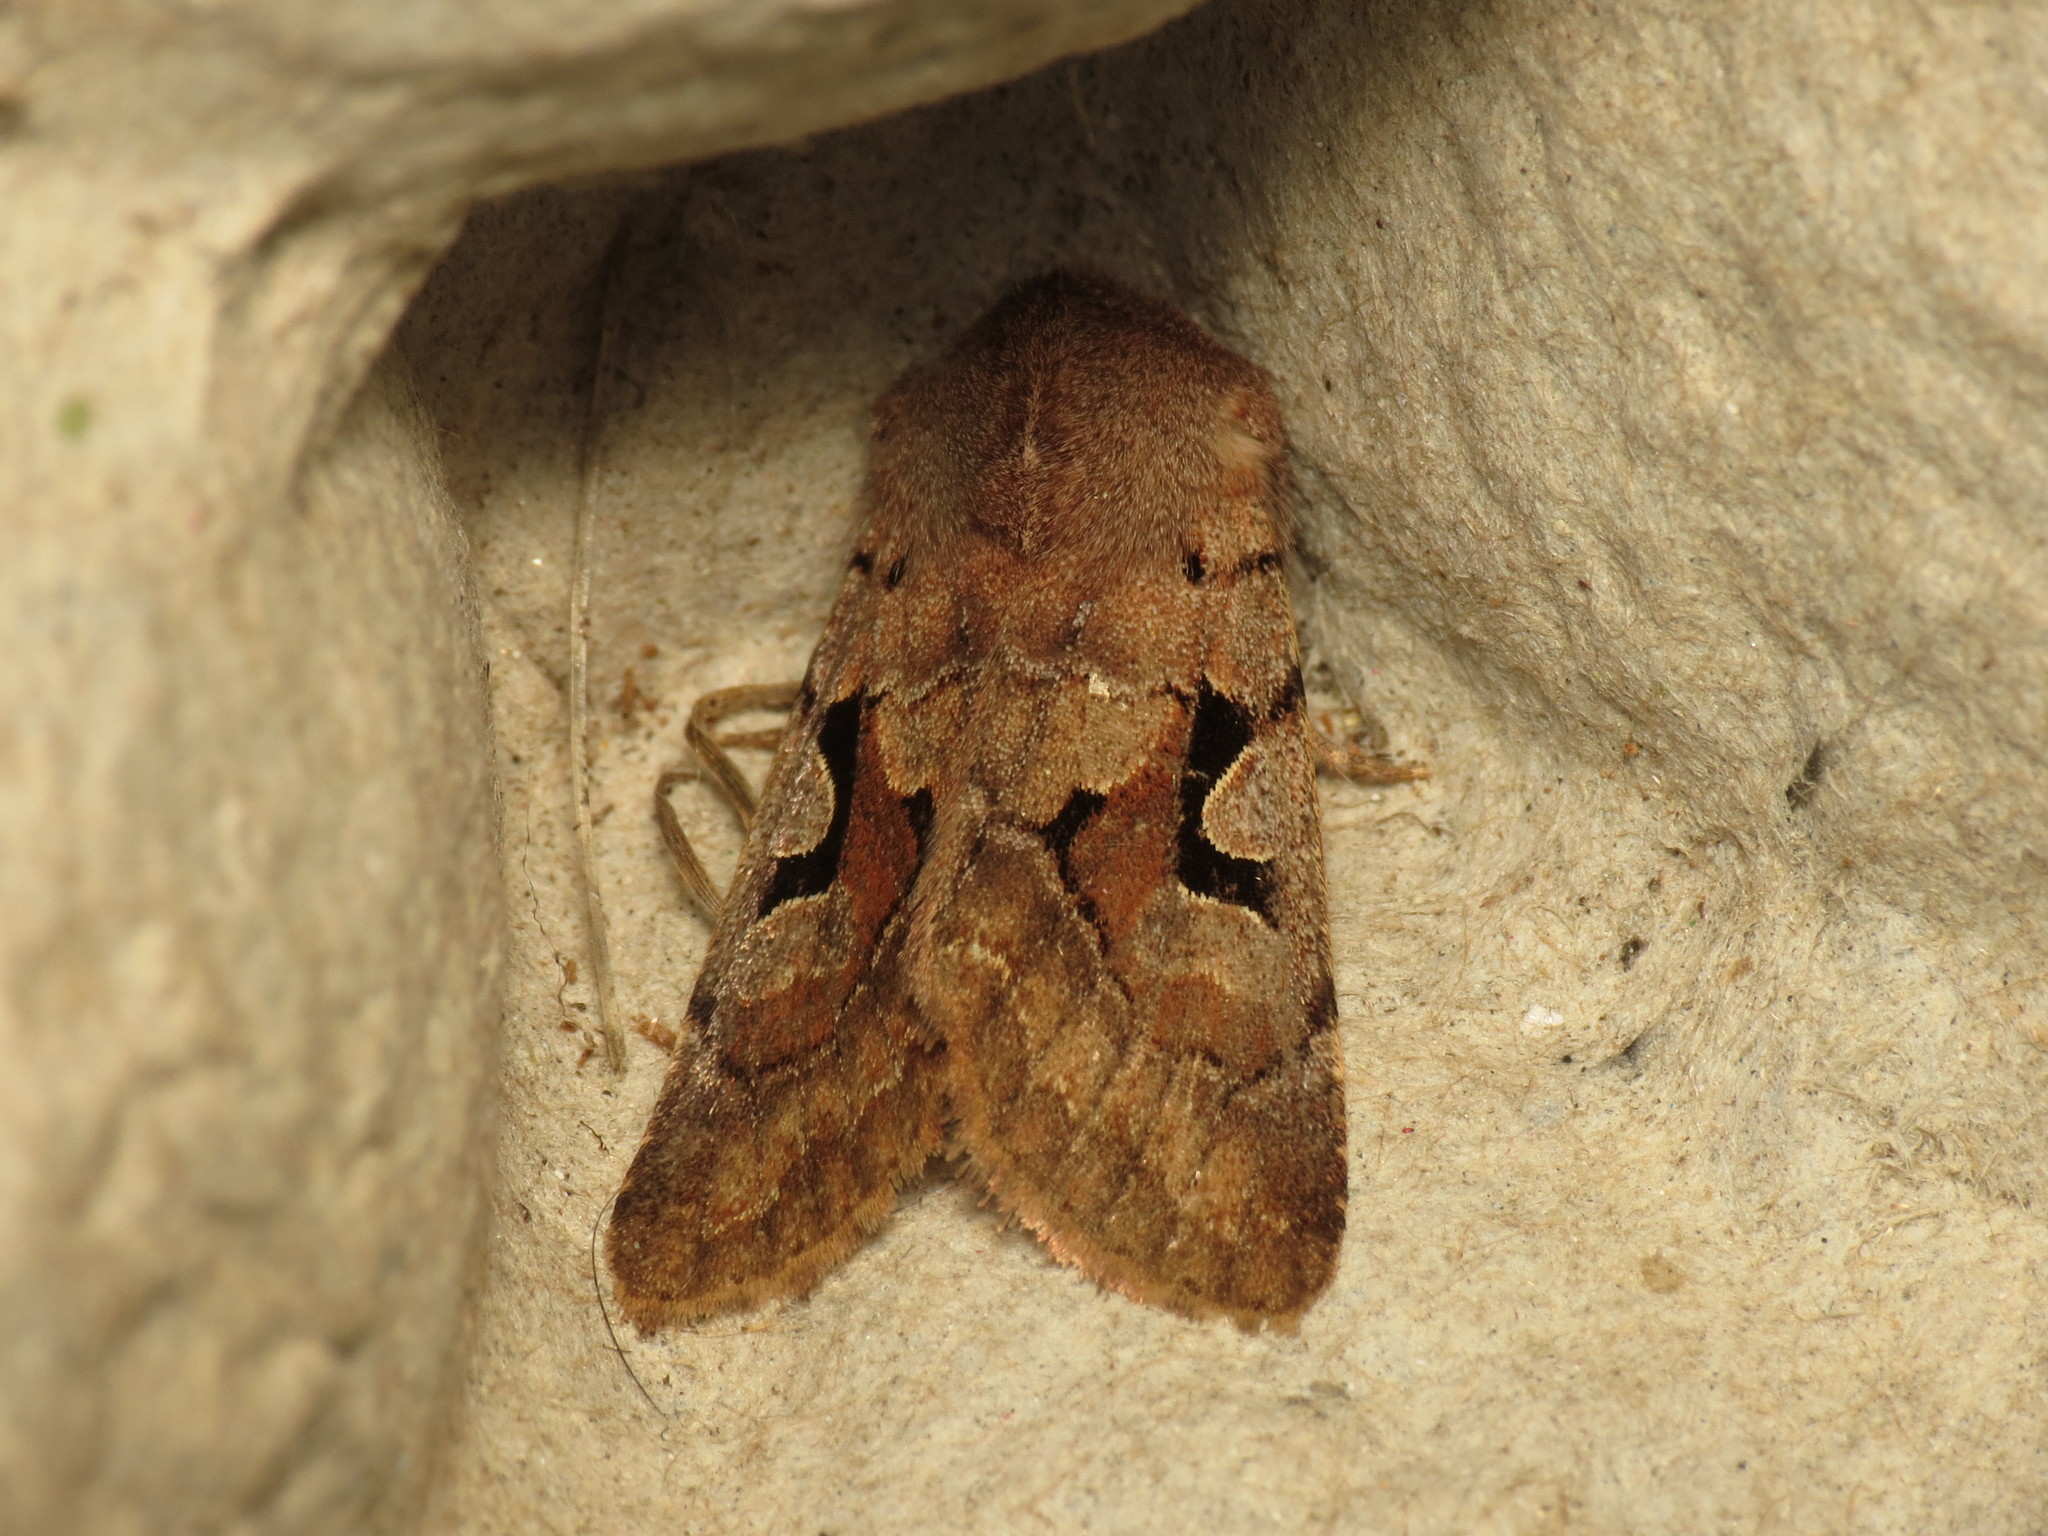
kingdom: Animalia
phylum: Arthropoda
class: Insecta
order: Lepidoptera
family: Noctuidae
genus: Orthosia
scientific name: Orthosia gothica
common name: Hebrew character
